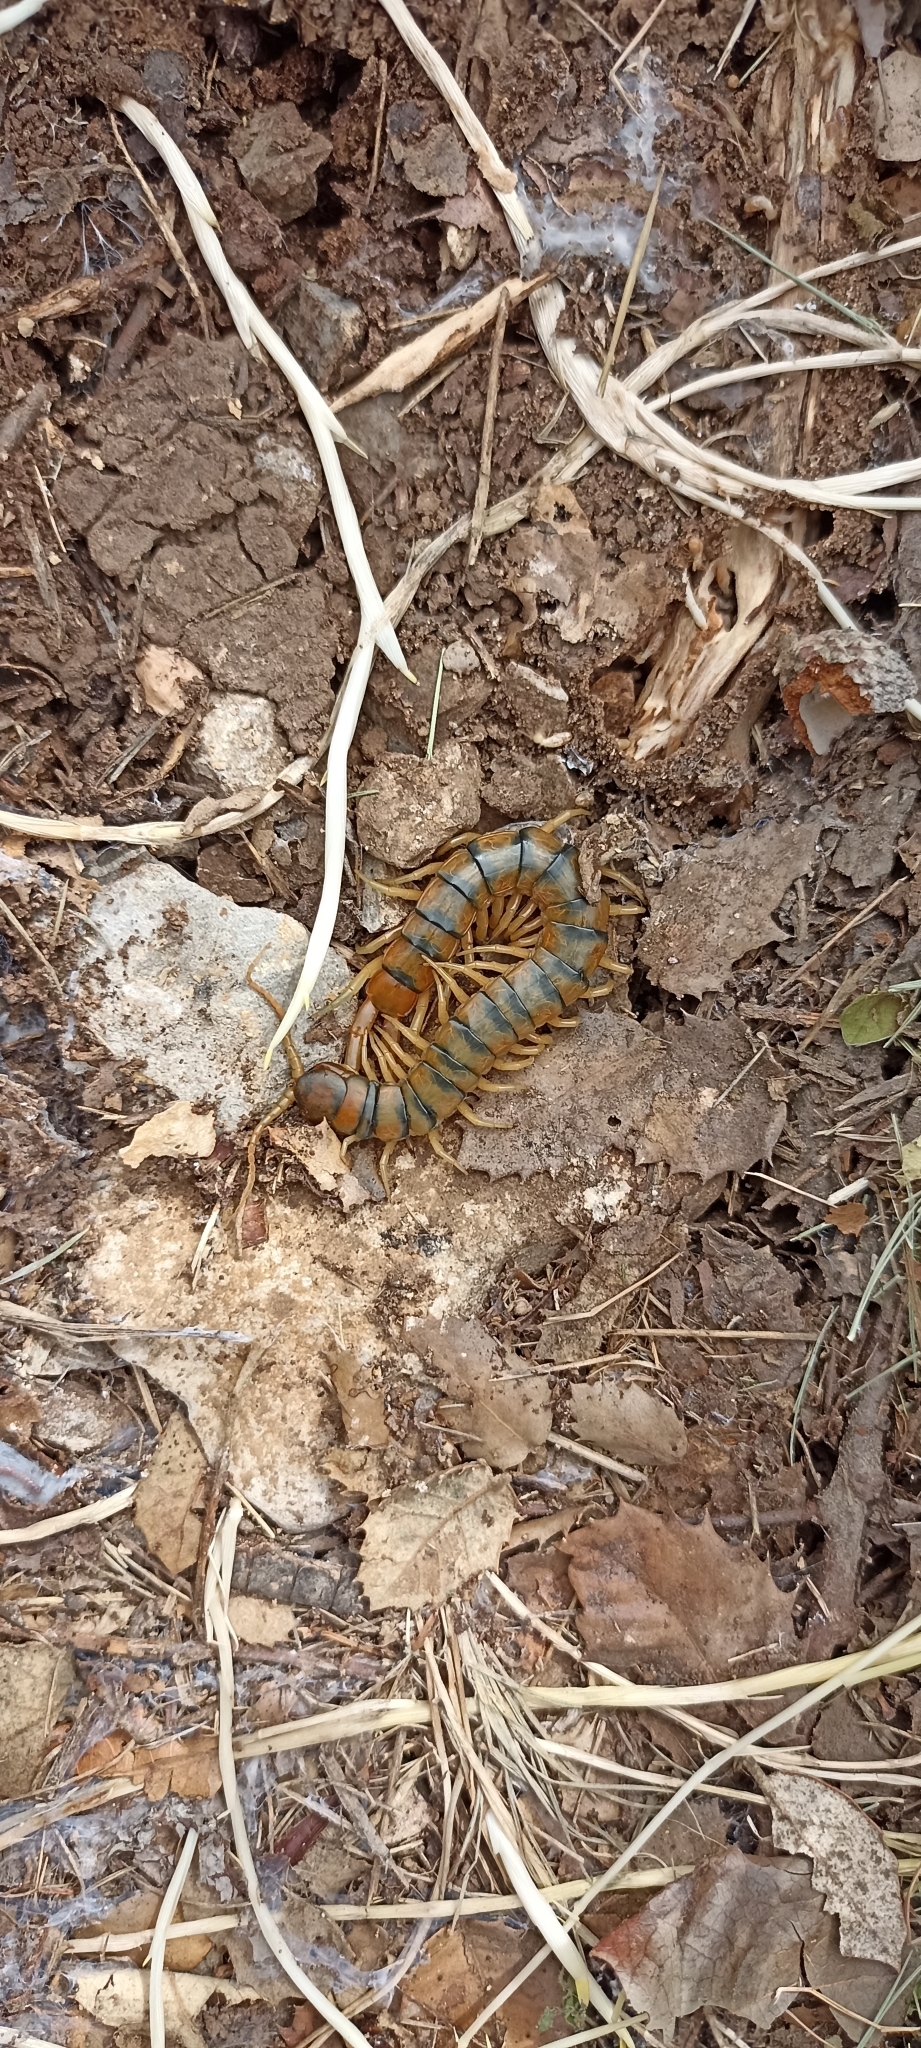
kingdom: Animalia
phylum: Arthropoda
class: Chilopoda
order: Scolopendromorpha
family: Scolopendridae
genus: Scolopendra
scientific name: Scolopendra cingulata
